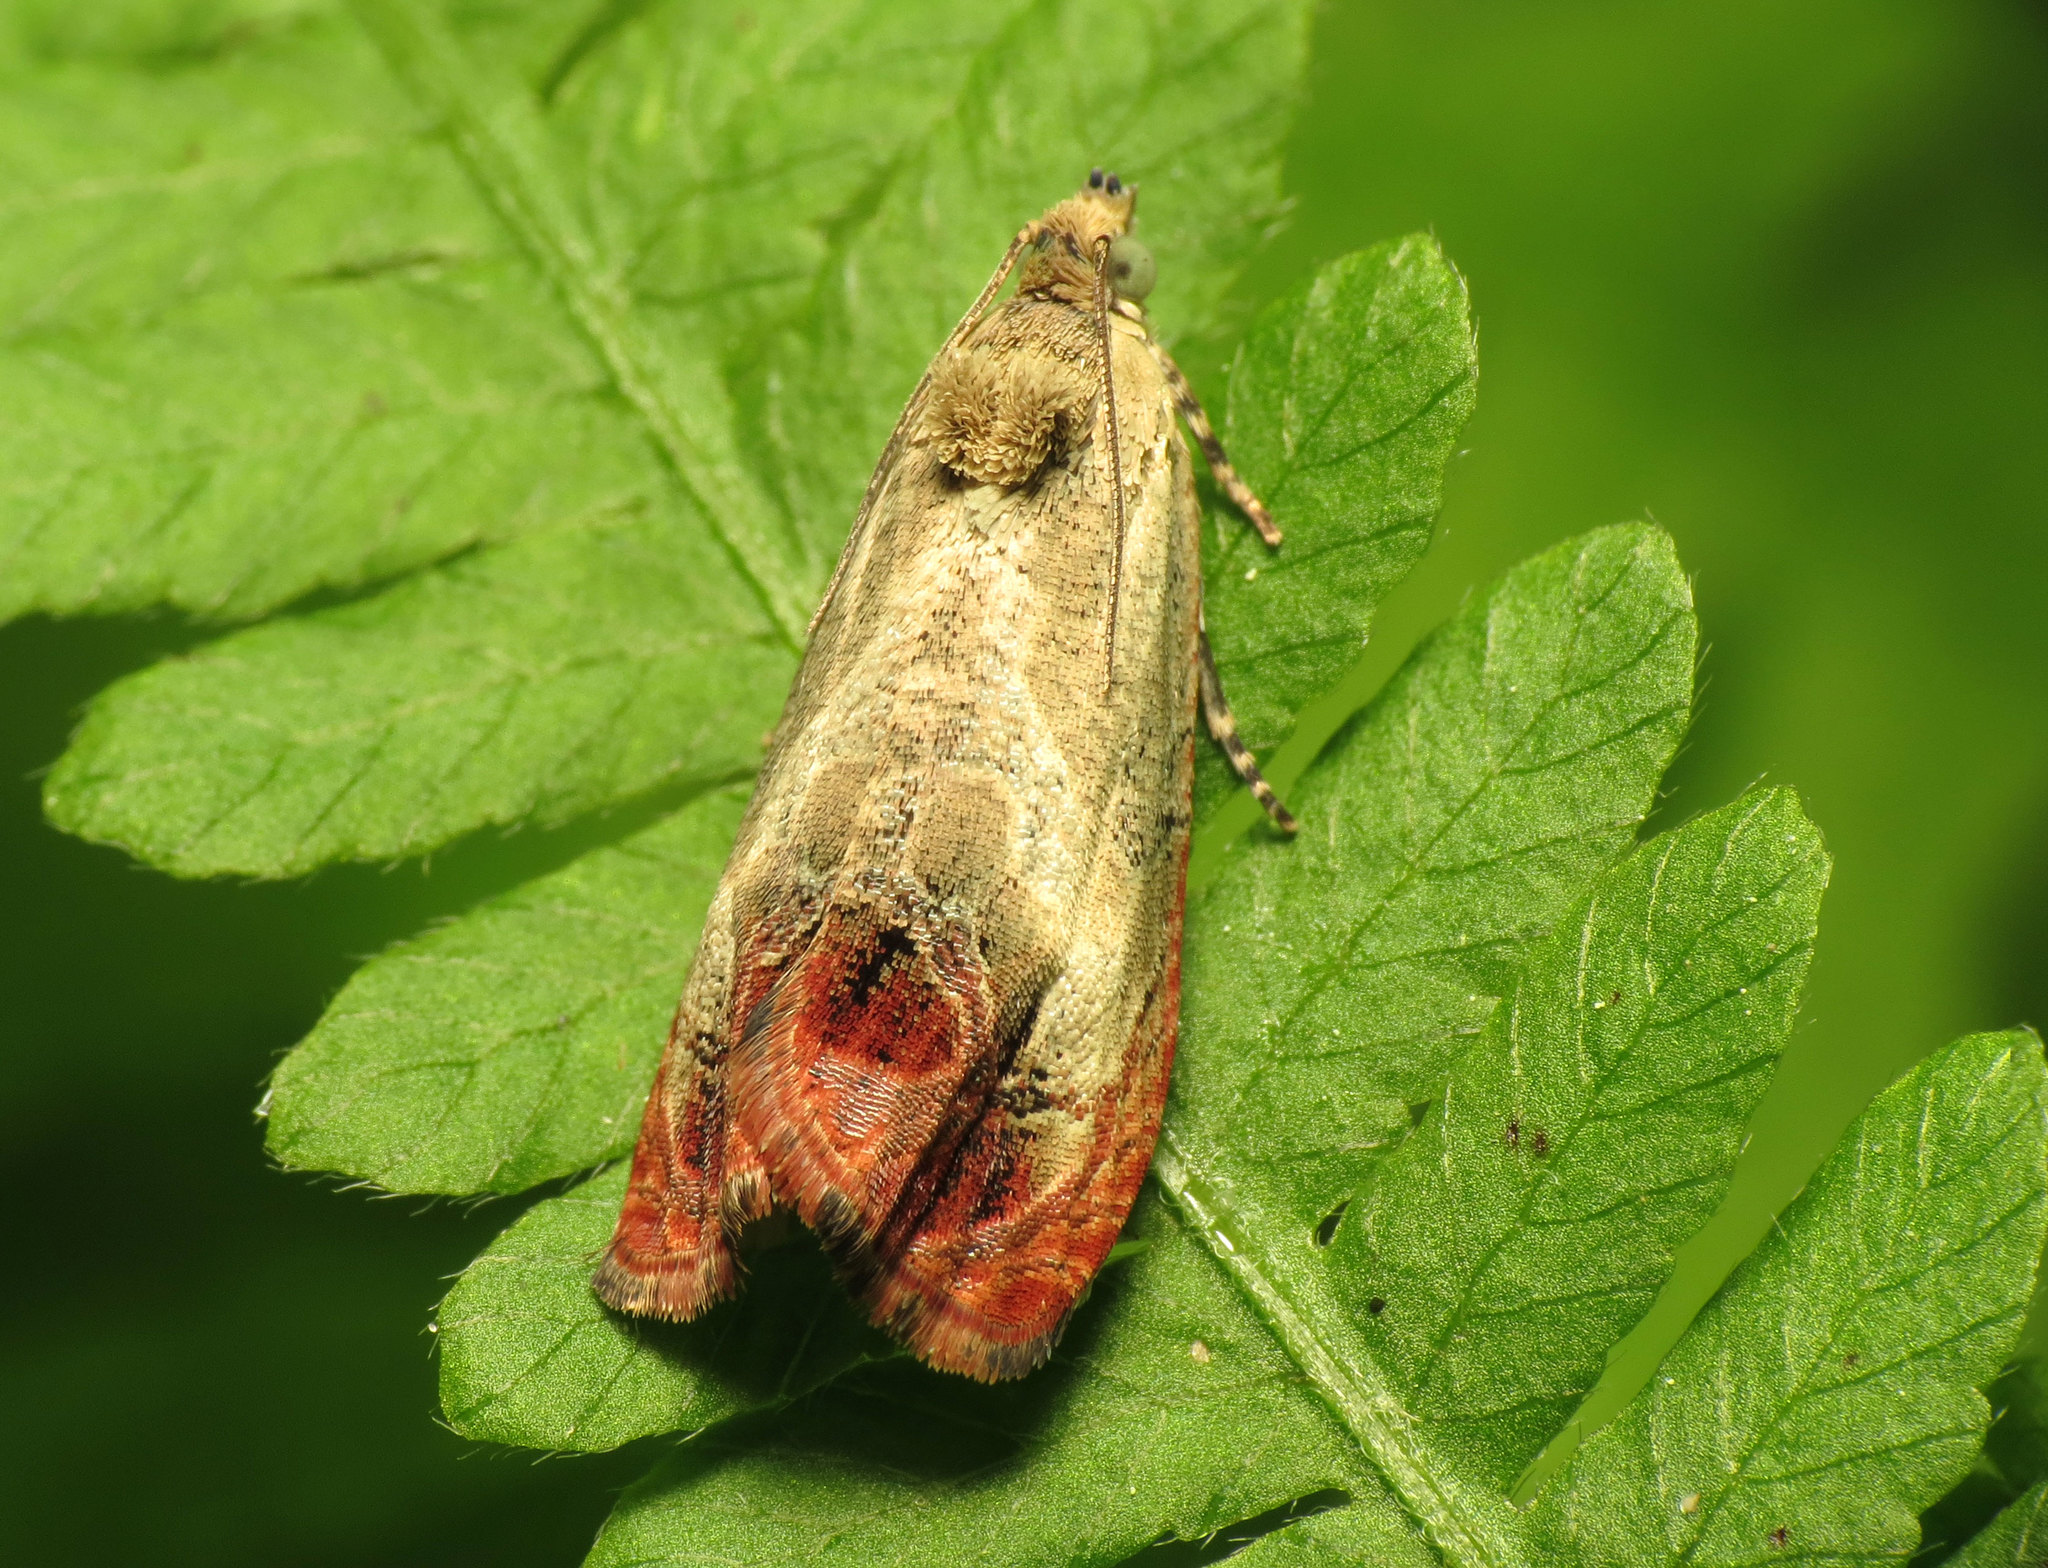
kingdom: Animalia
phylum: Arthropoda
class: Insecta
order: Lepidoptera
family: Tortricidae
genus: Olethreutes
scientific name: Olethreutes hamameliana
